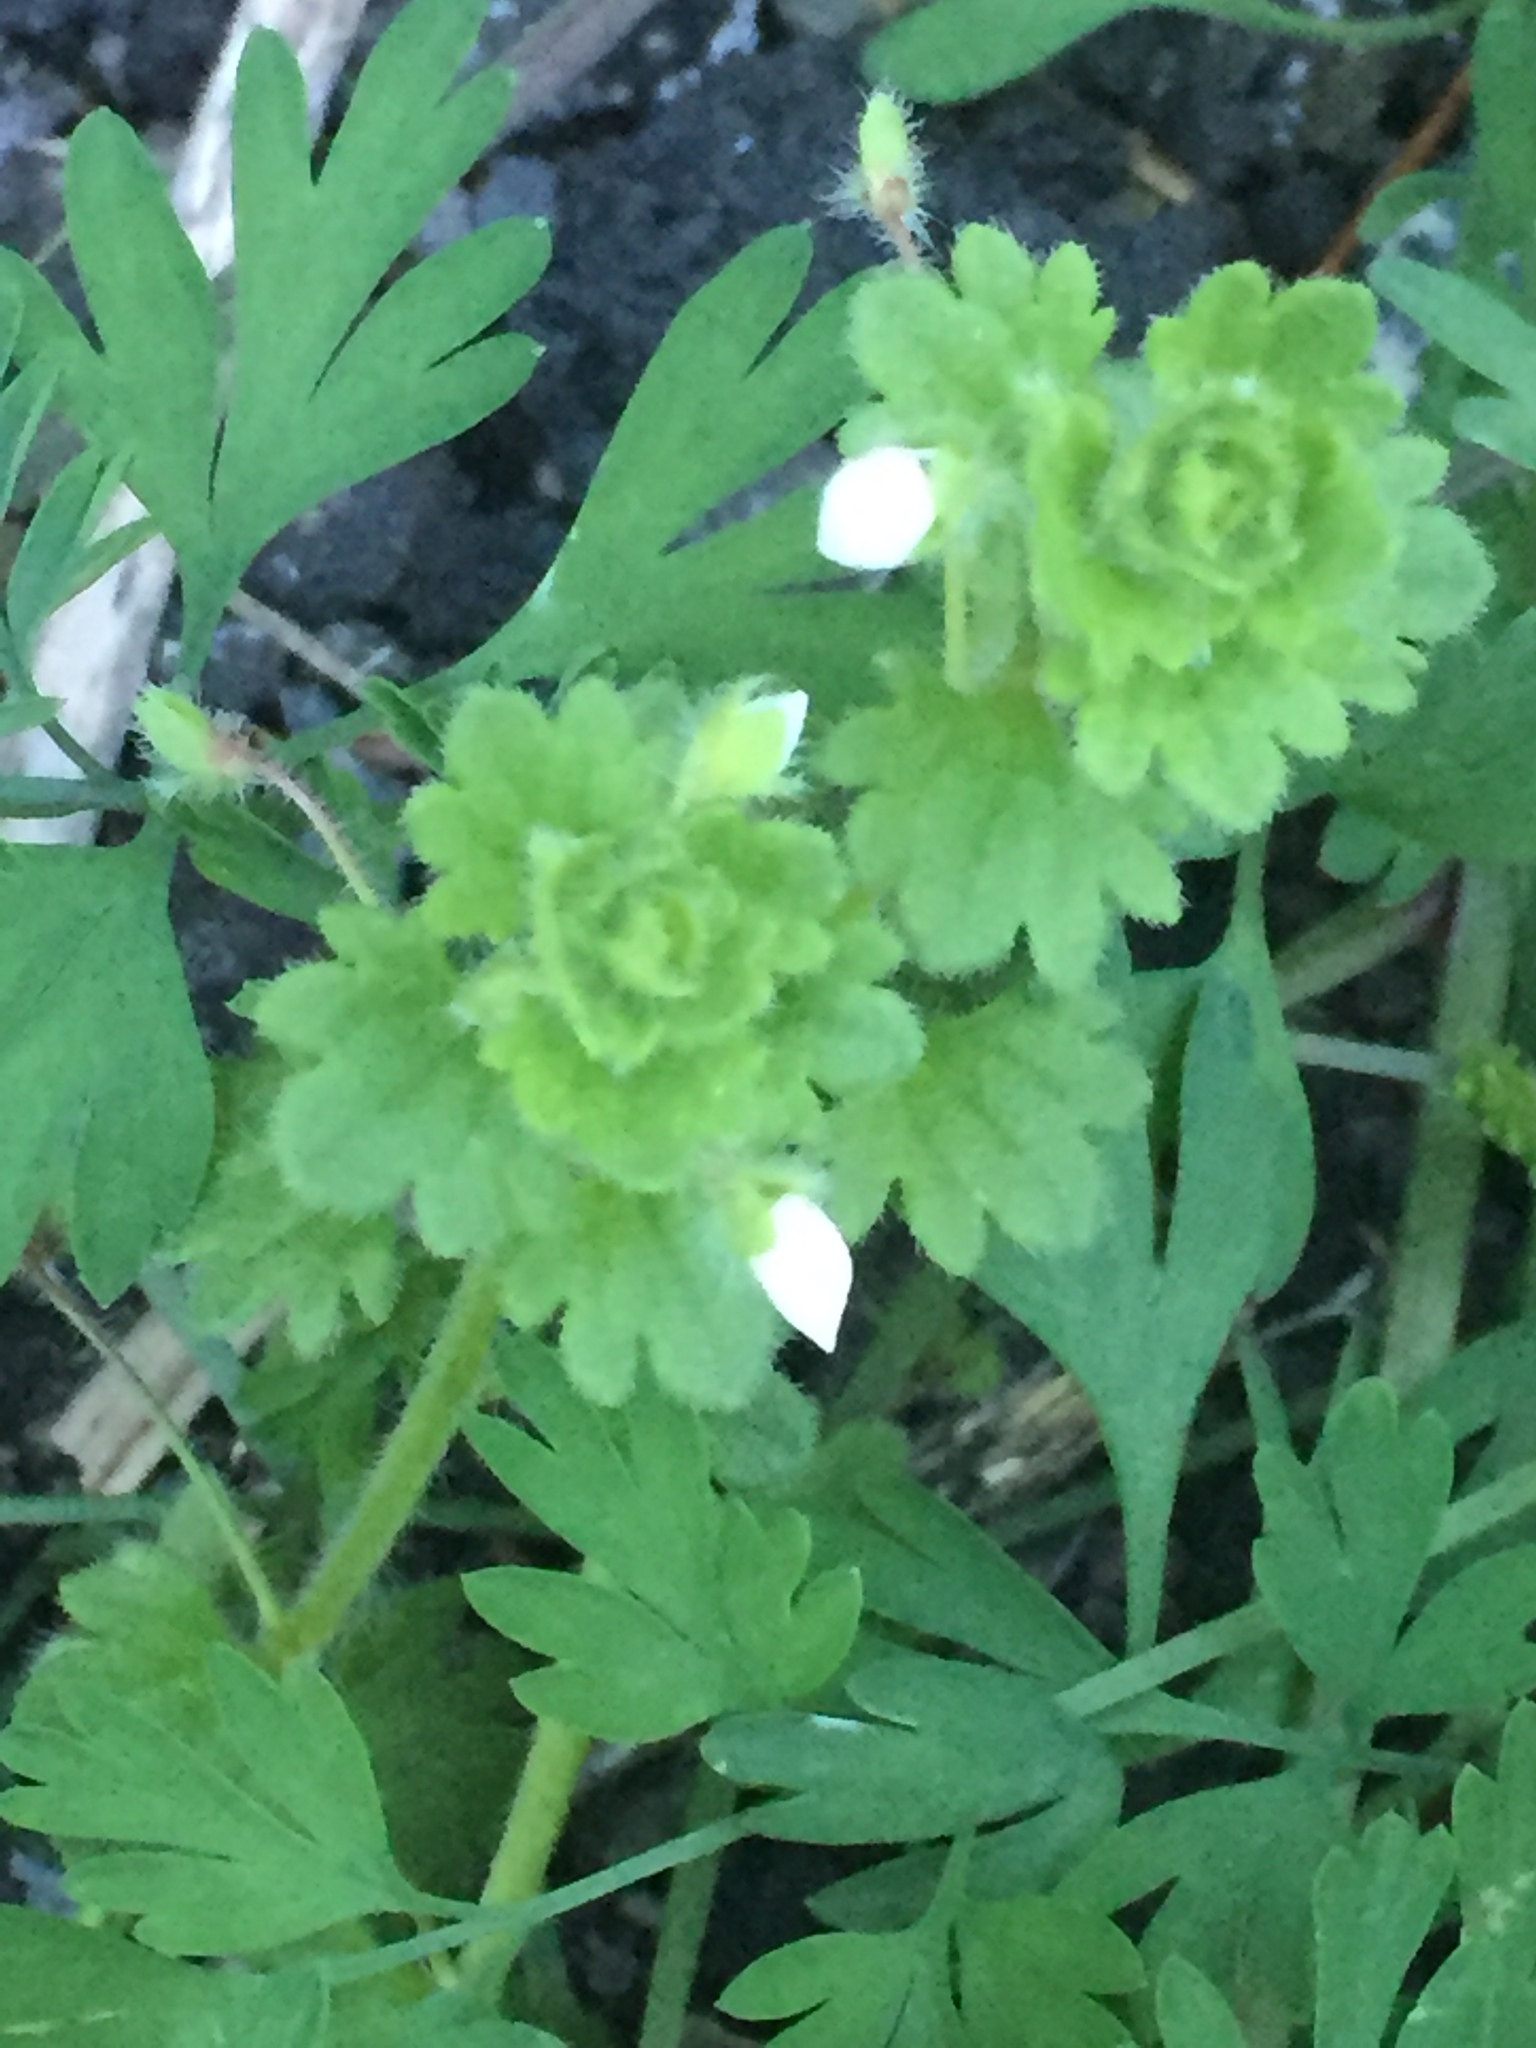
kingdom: Plantae
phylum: Tracheophyta
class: Magnoliopsida
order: Lamiales
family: Plantaginaceae
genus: Veronica
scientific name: Veronica cymbalaria
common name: Pale speedwell
